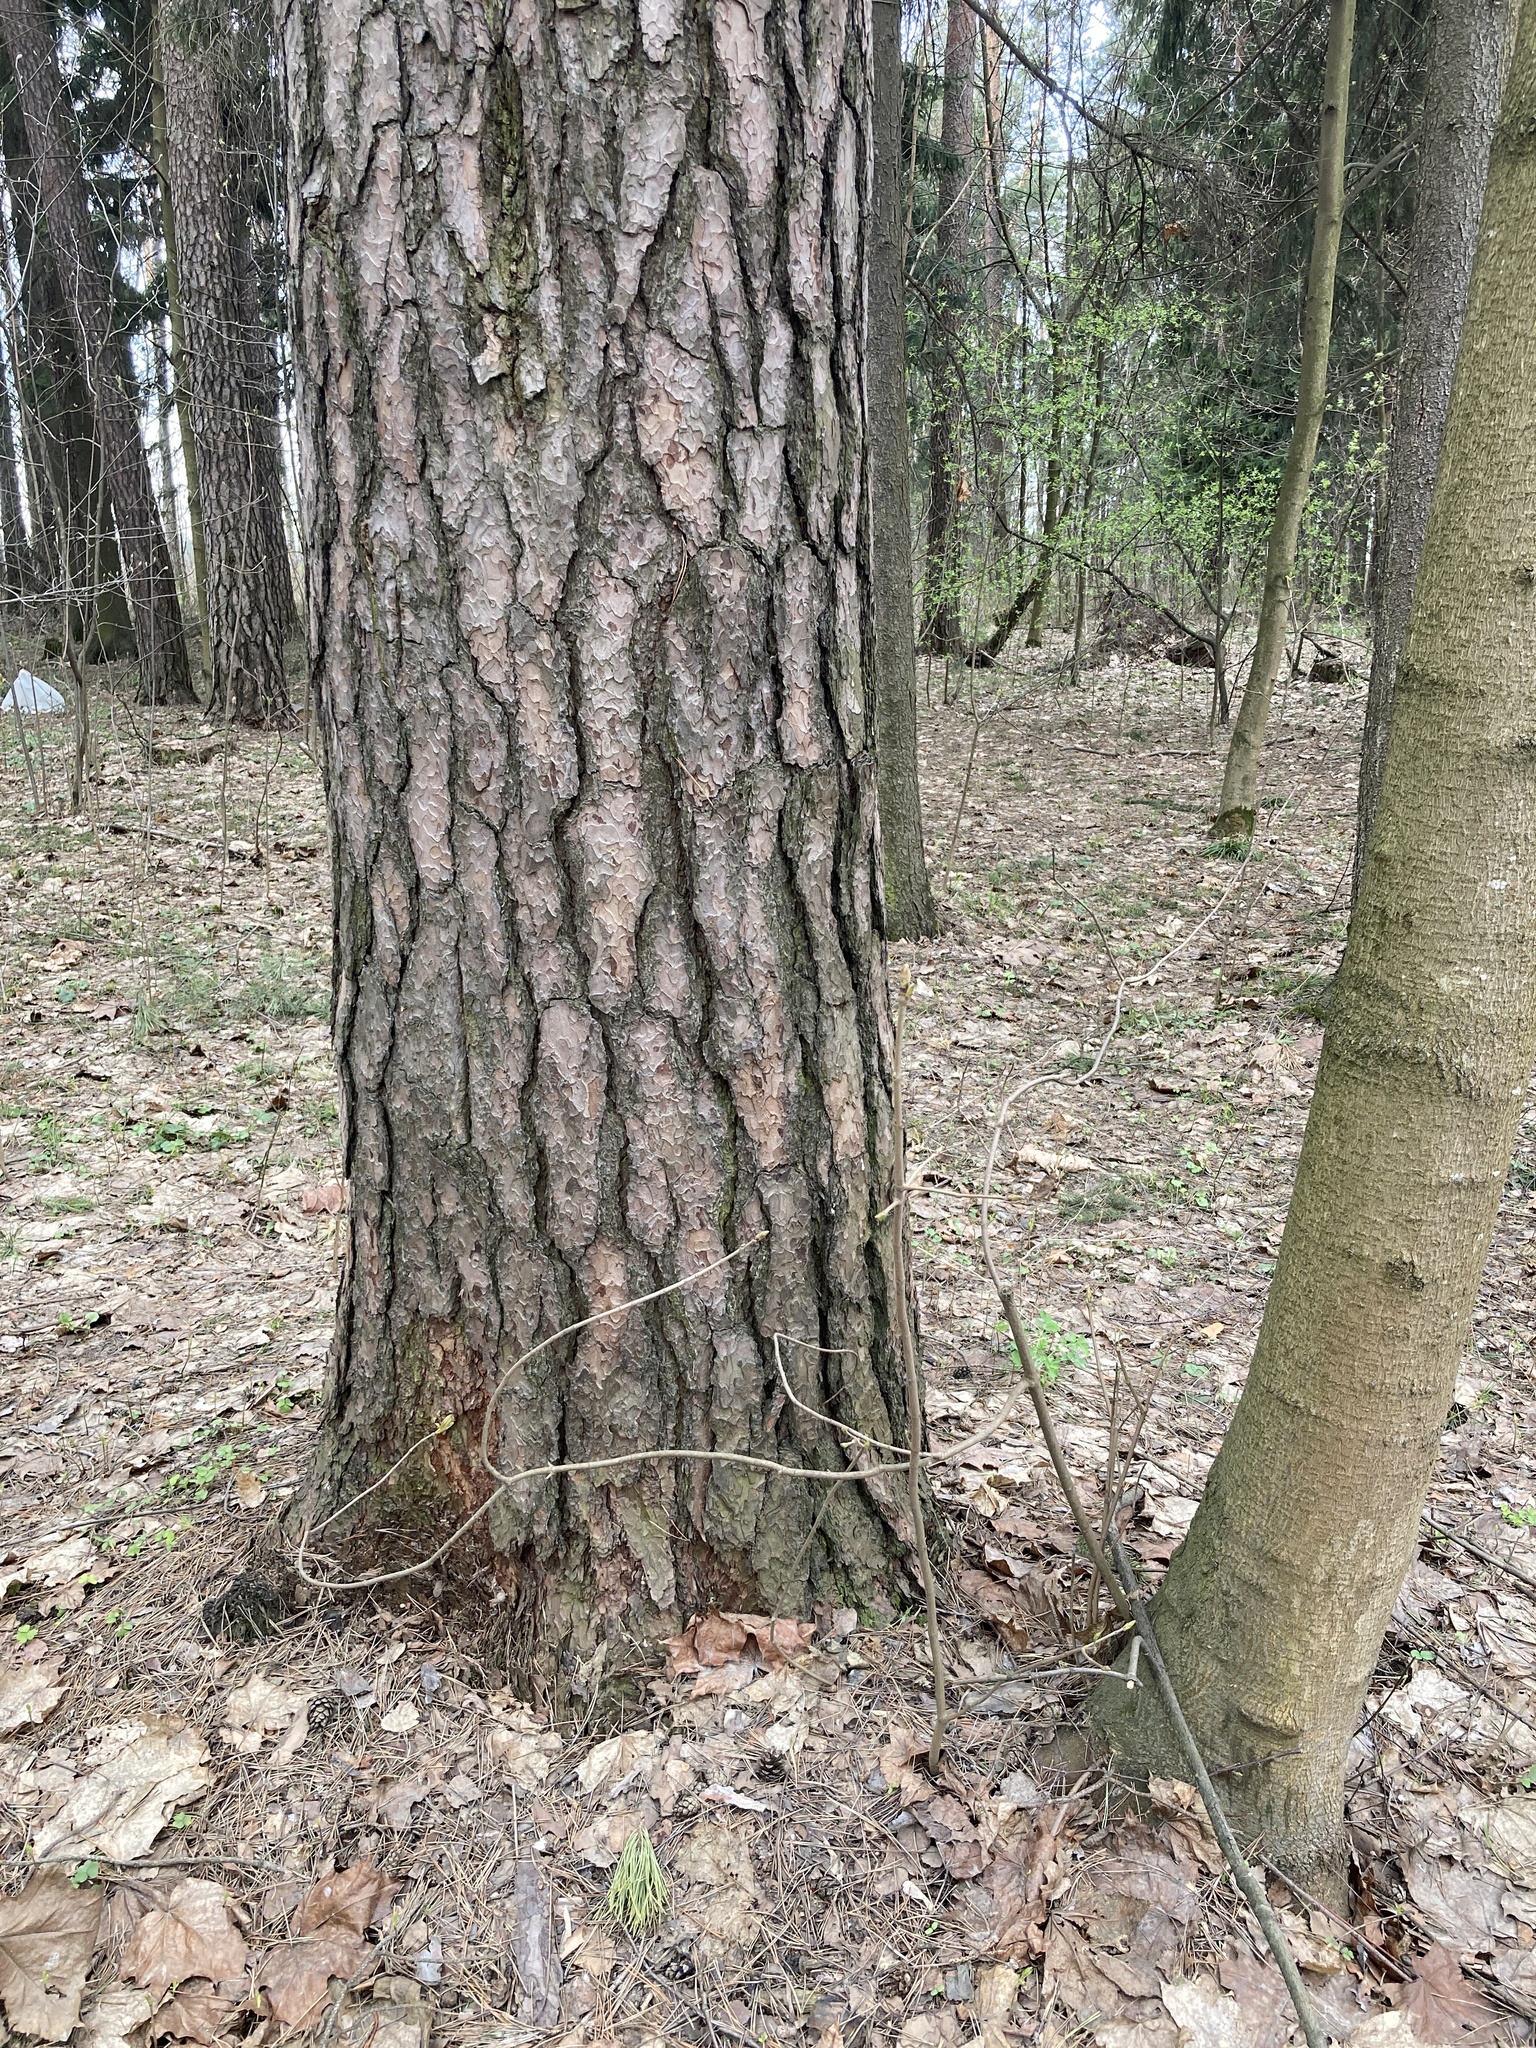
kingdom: Plantae
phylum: Tracheophyta
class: Pinopsida
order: Pinales
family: Pinaceae
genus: Pinus
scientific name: Pinus sylvestris
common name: Scots pine
